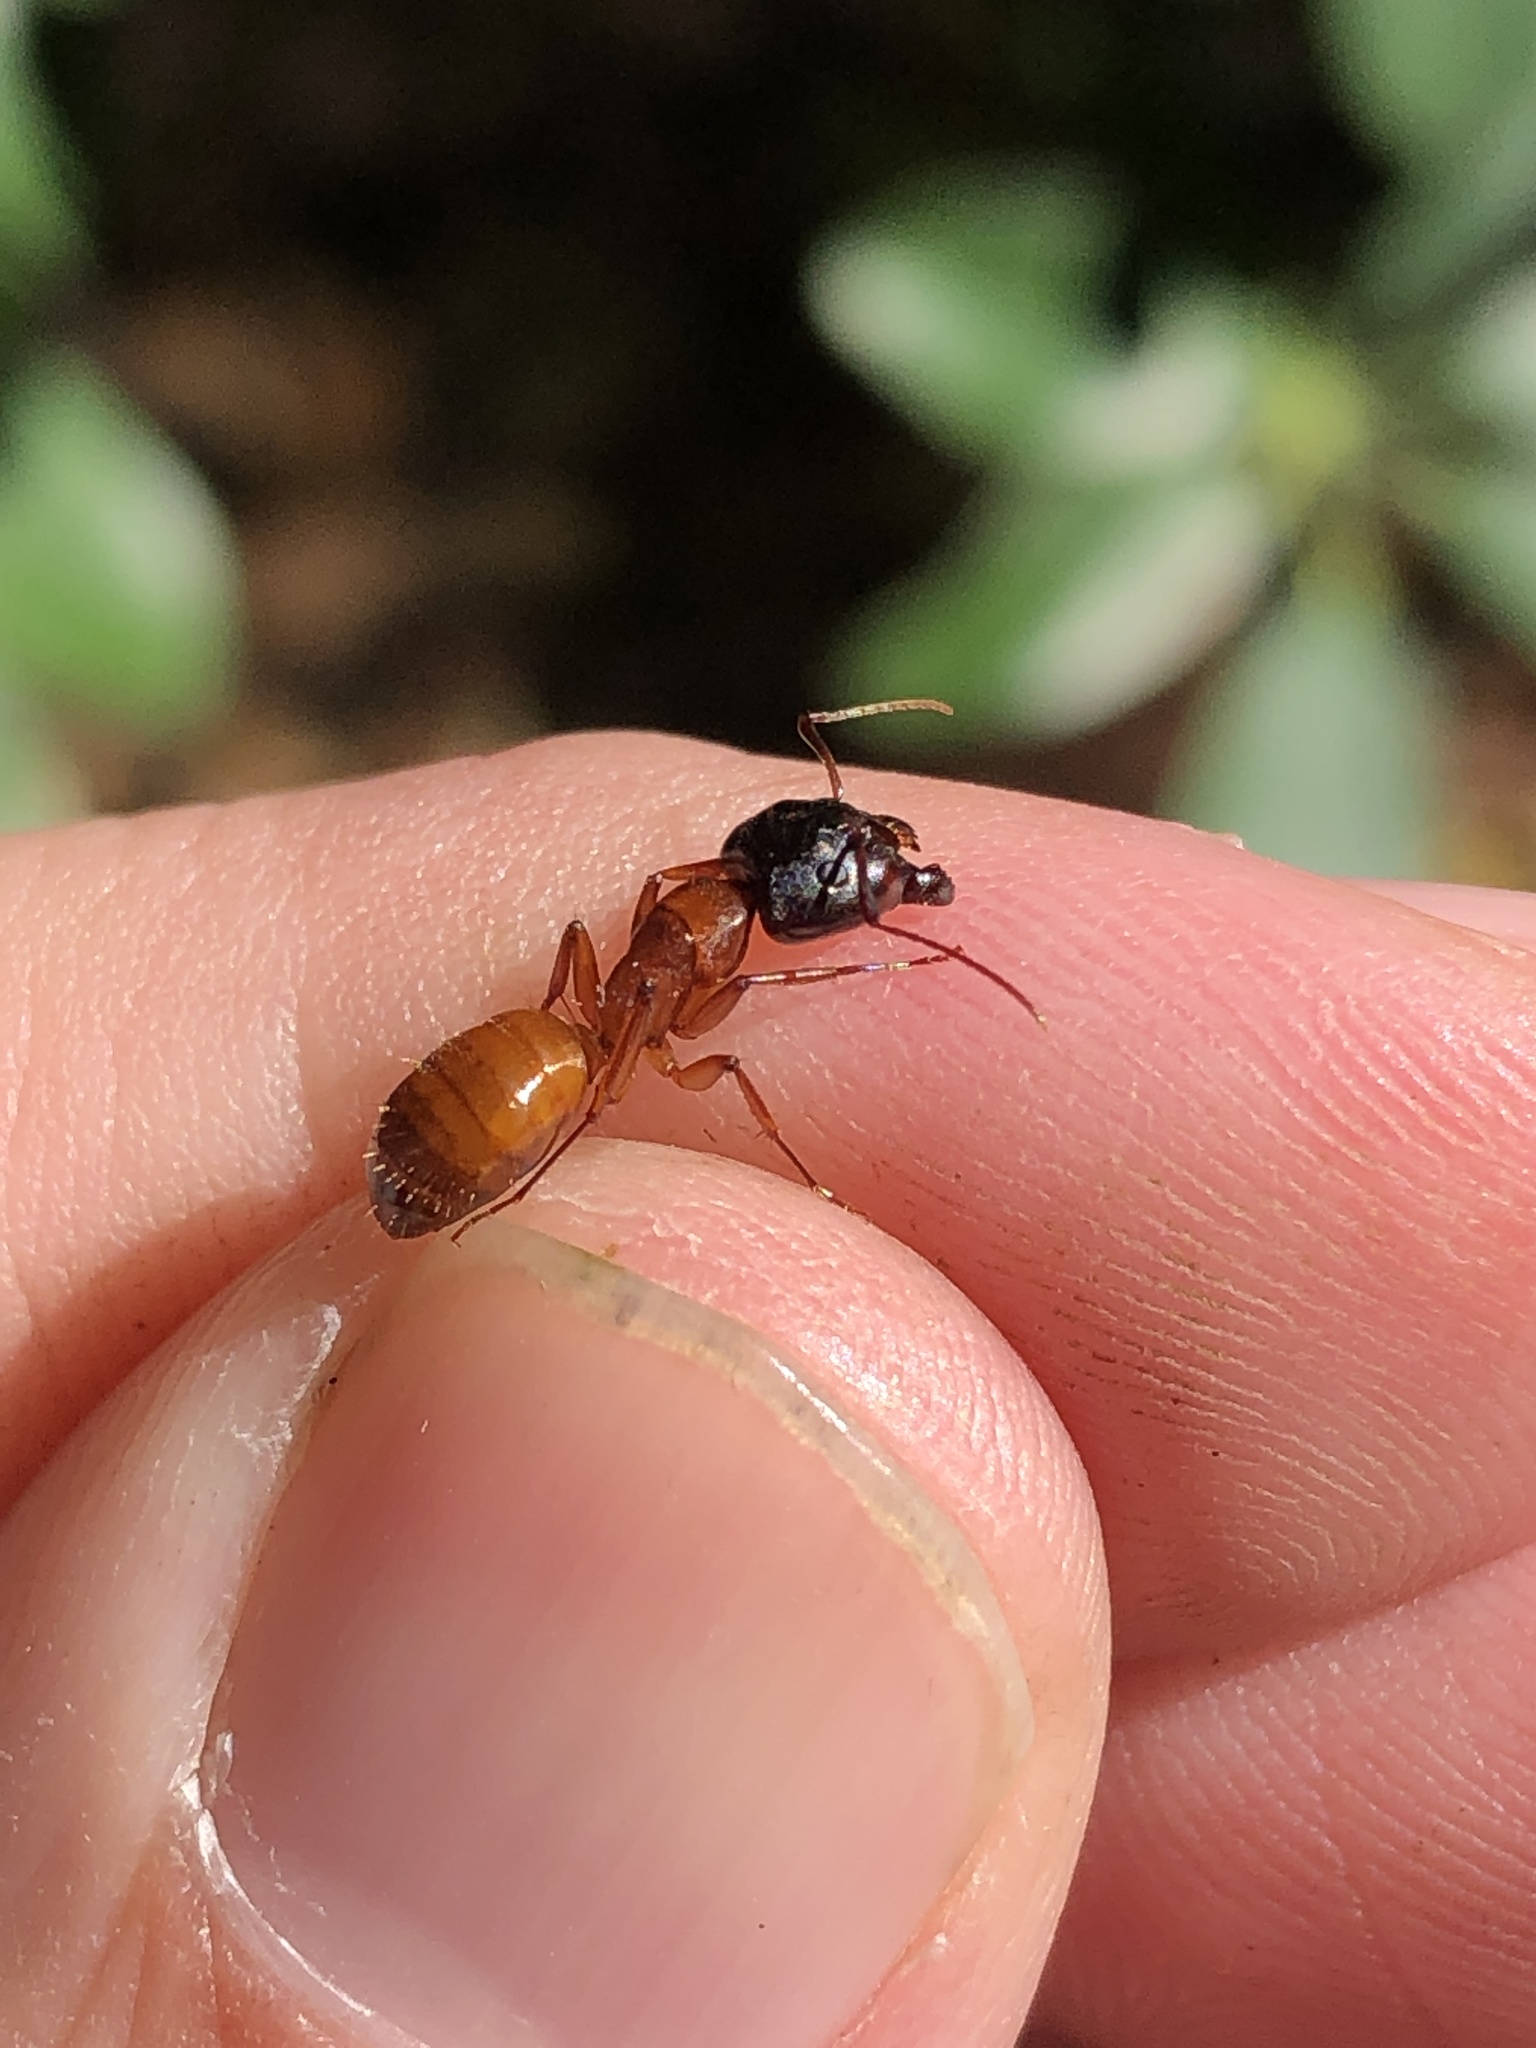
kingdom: Animalia
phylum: Arthropoda
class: Insecta
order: Hymenoptera
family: Formicidae
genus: Camponotus
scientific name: Camponotus sansabeanus
